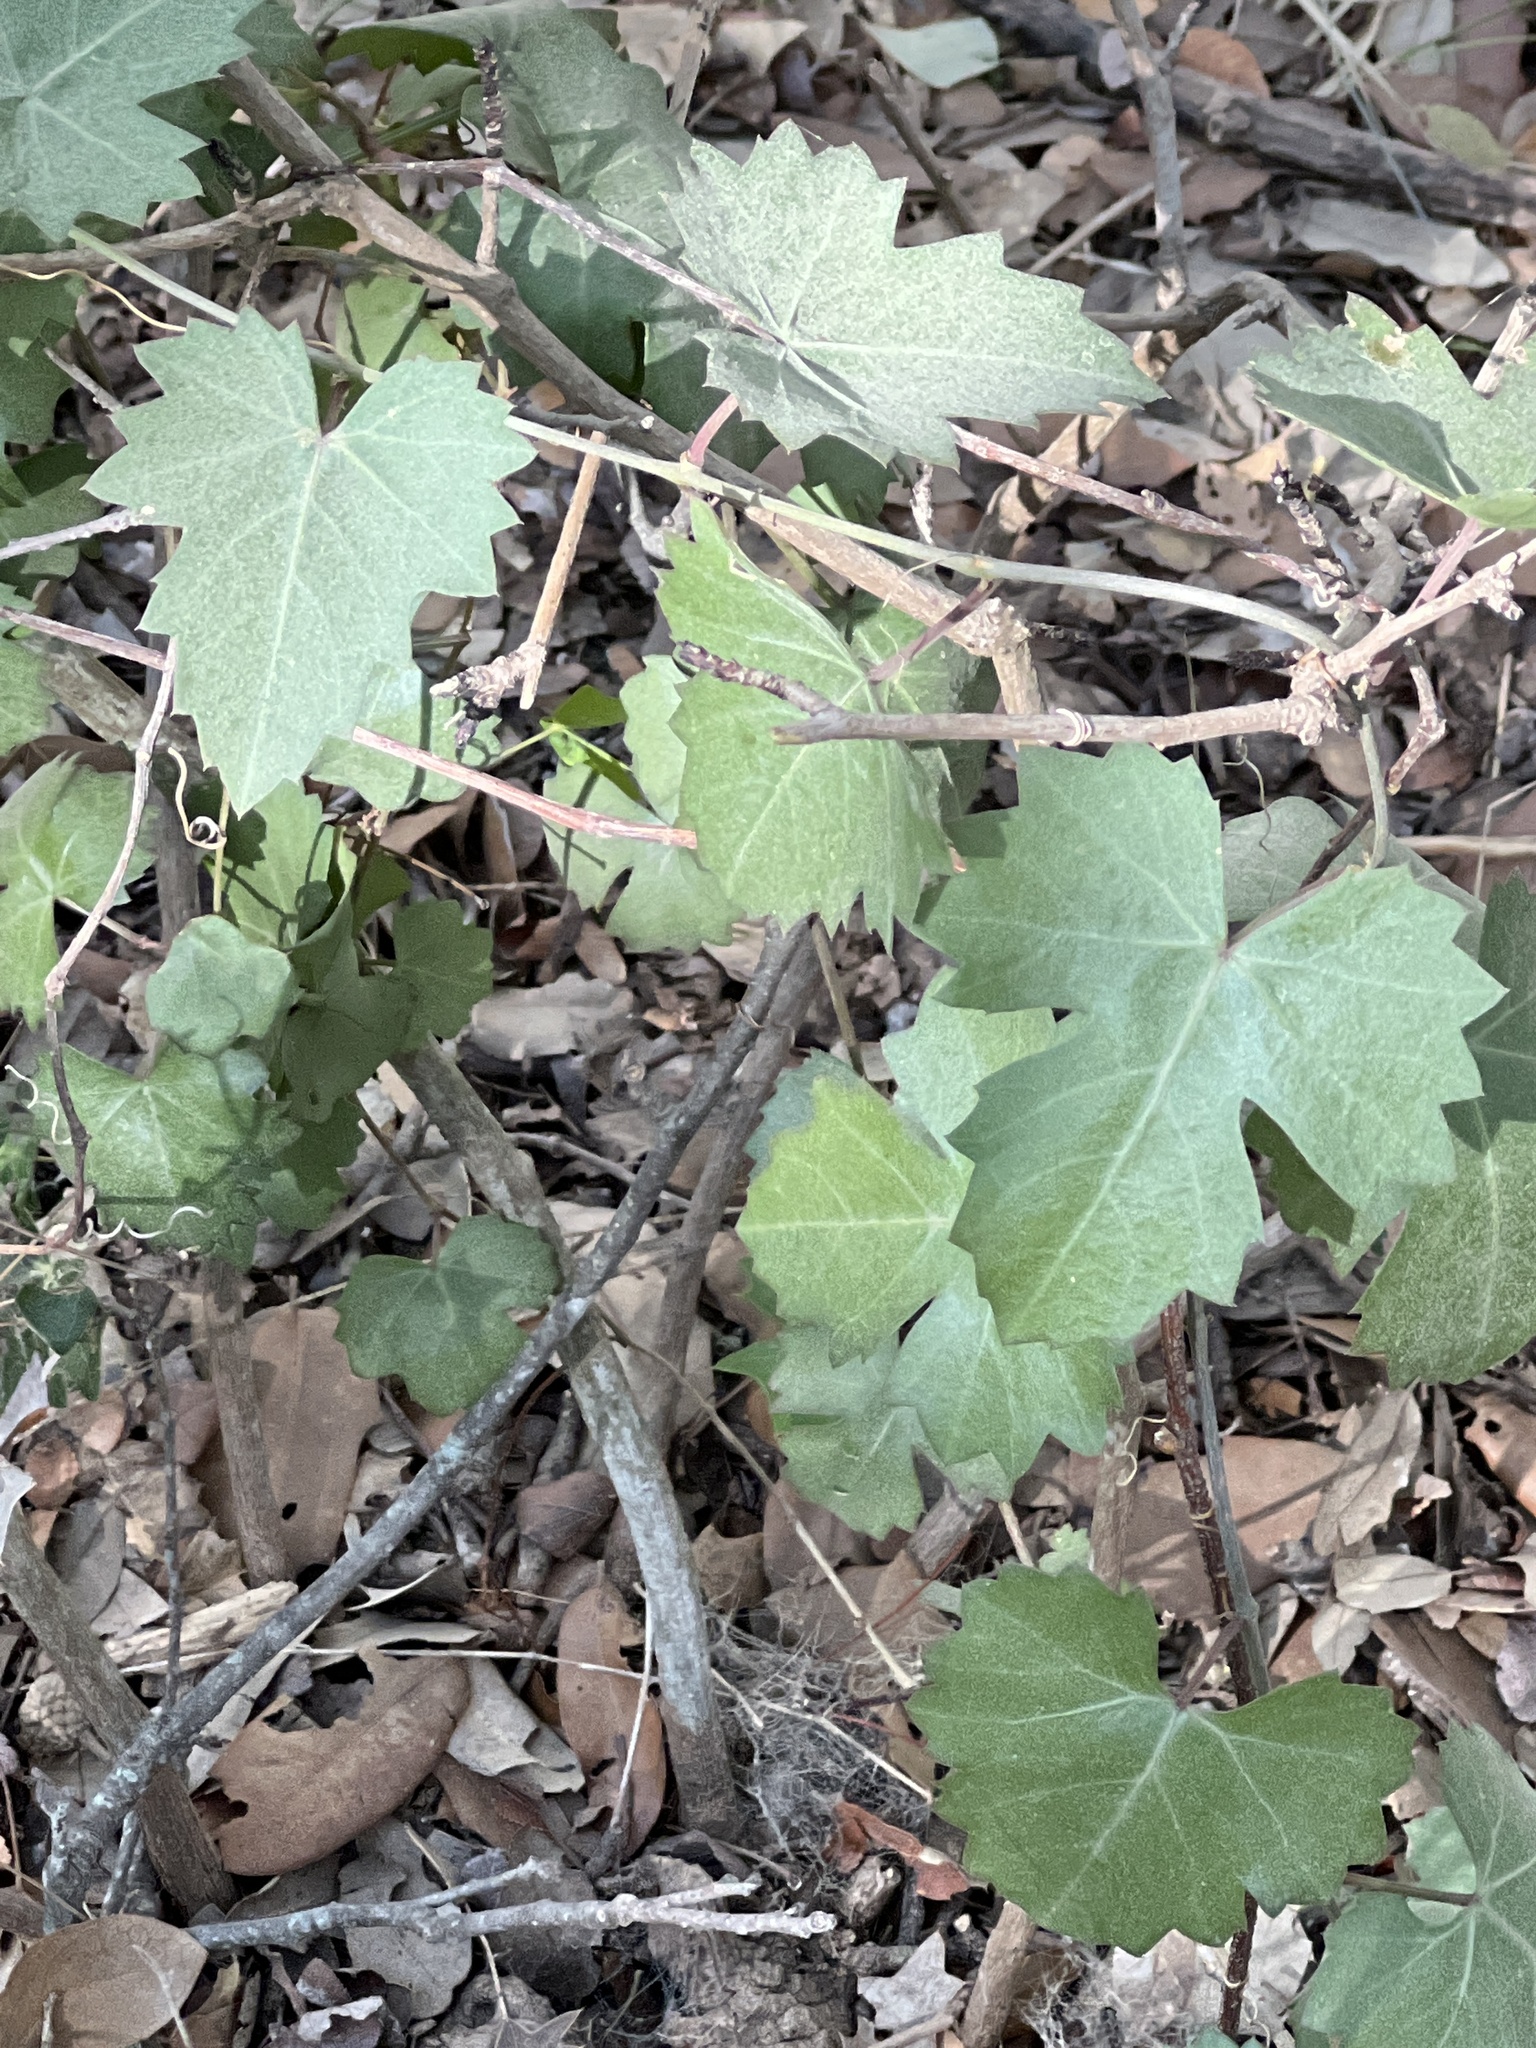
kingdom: Plantae
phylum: Tracheophyta
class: Magnoliopsida
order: Vitales
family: Vitaceae
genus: Cissus
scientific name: Cissus trifoliata
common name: Vine-sorrel
